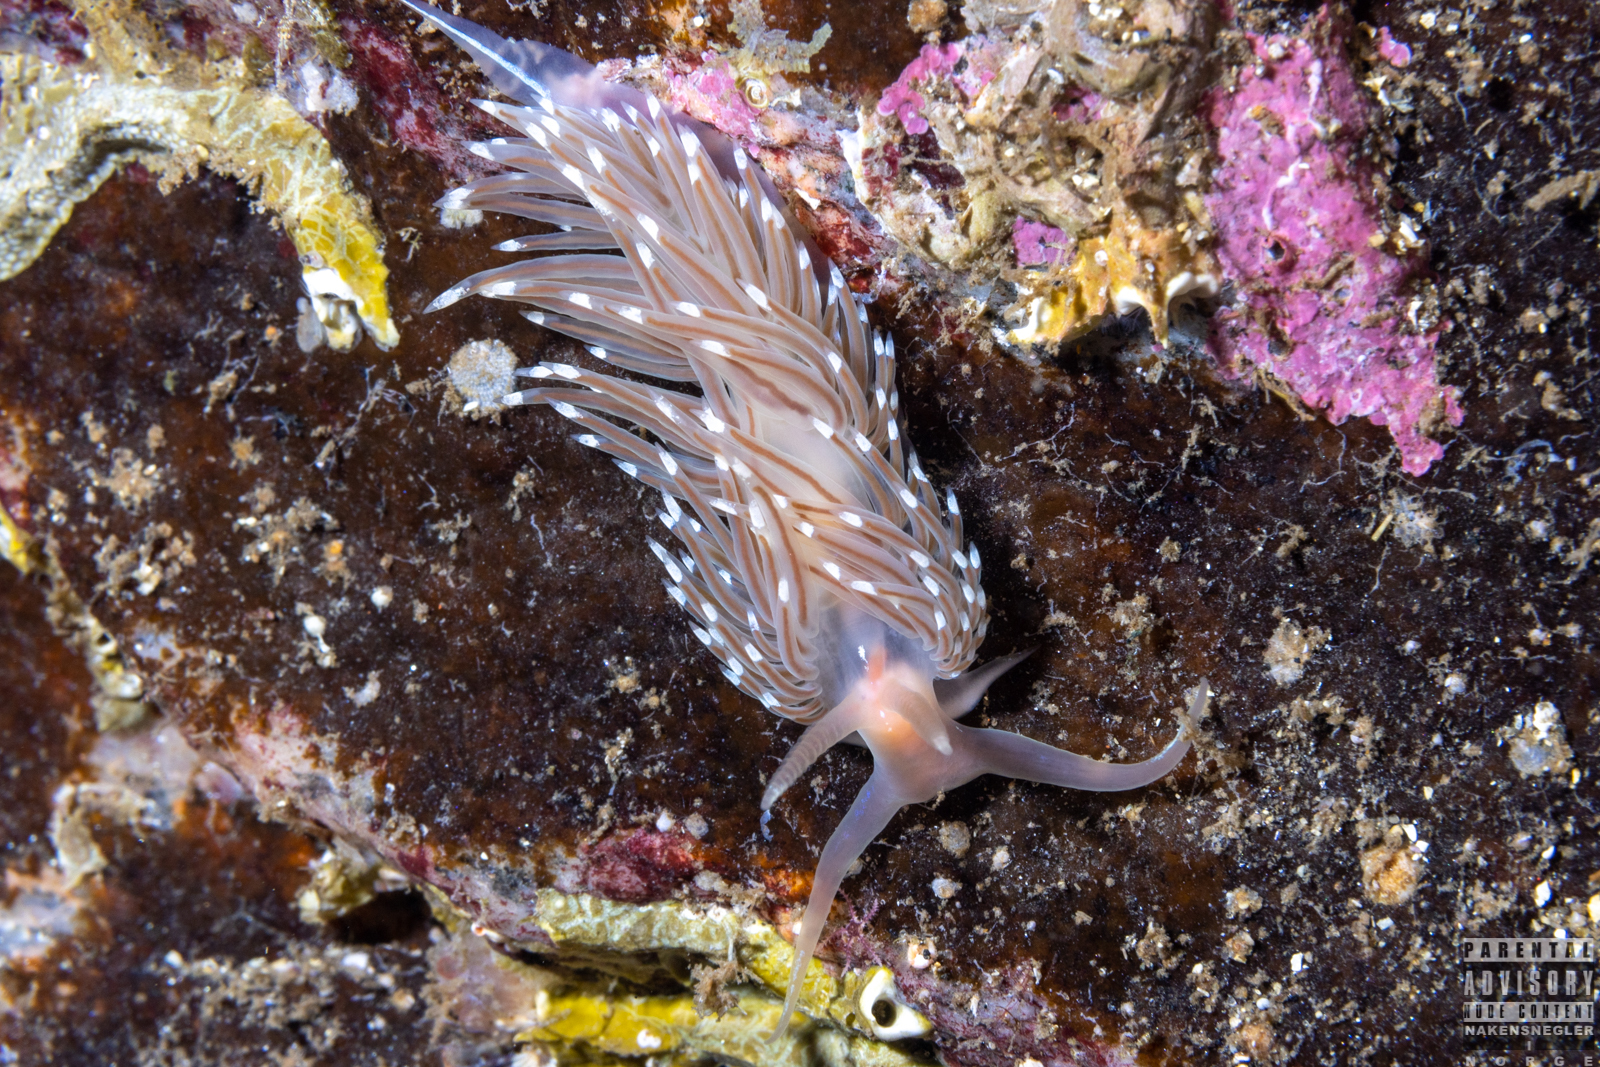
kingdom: Animalia
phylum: Mollusca
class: Gastropoda
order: Nudibranchia
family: Facelinidae
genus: Facelina
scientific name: Facelina bostoniensis
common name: Boston facelina
